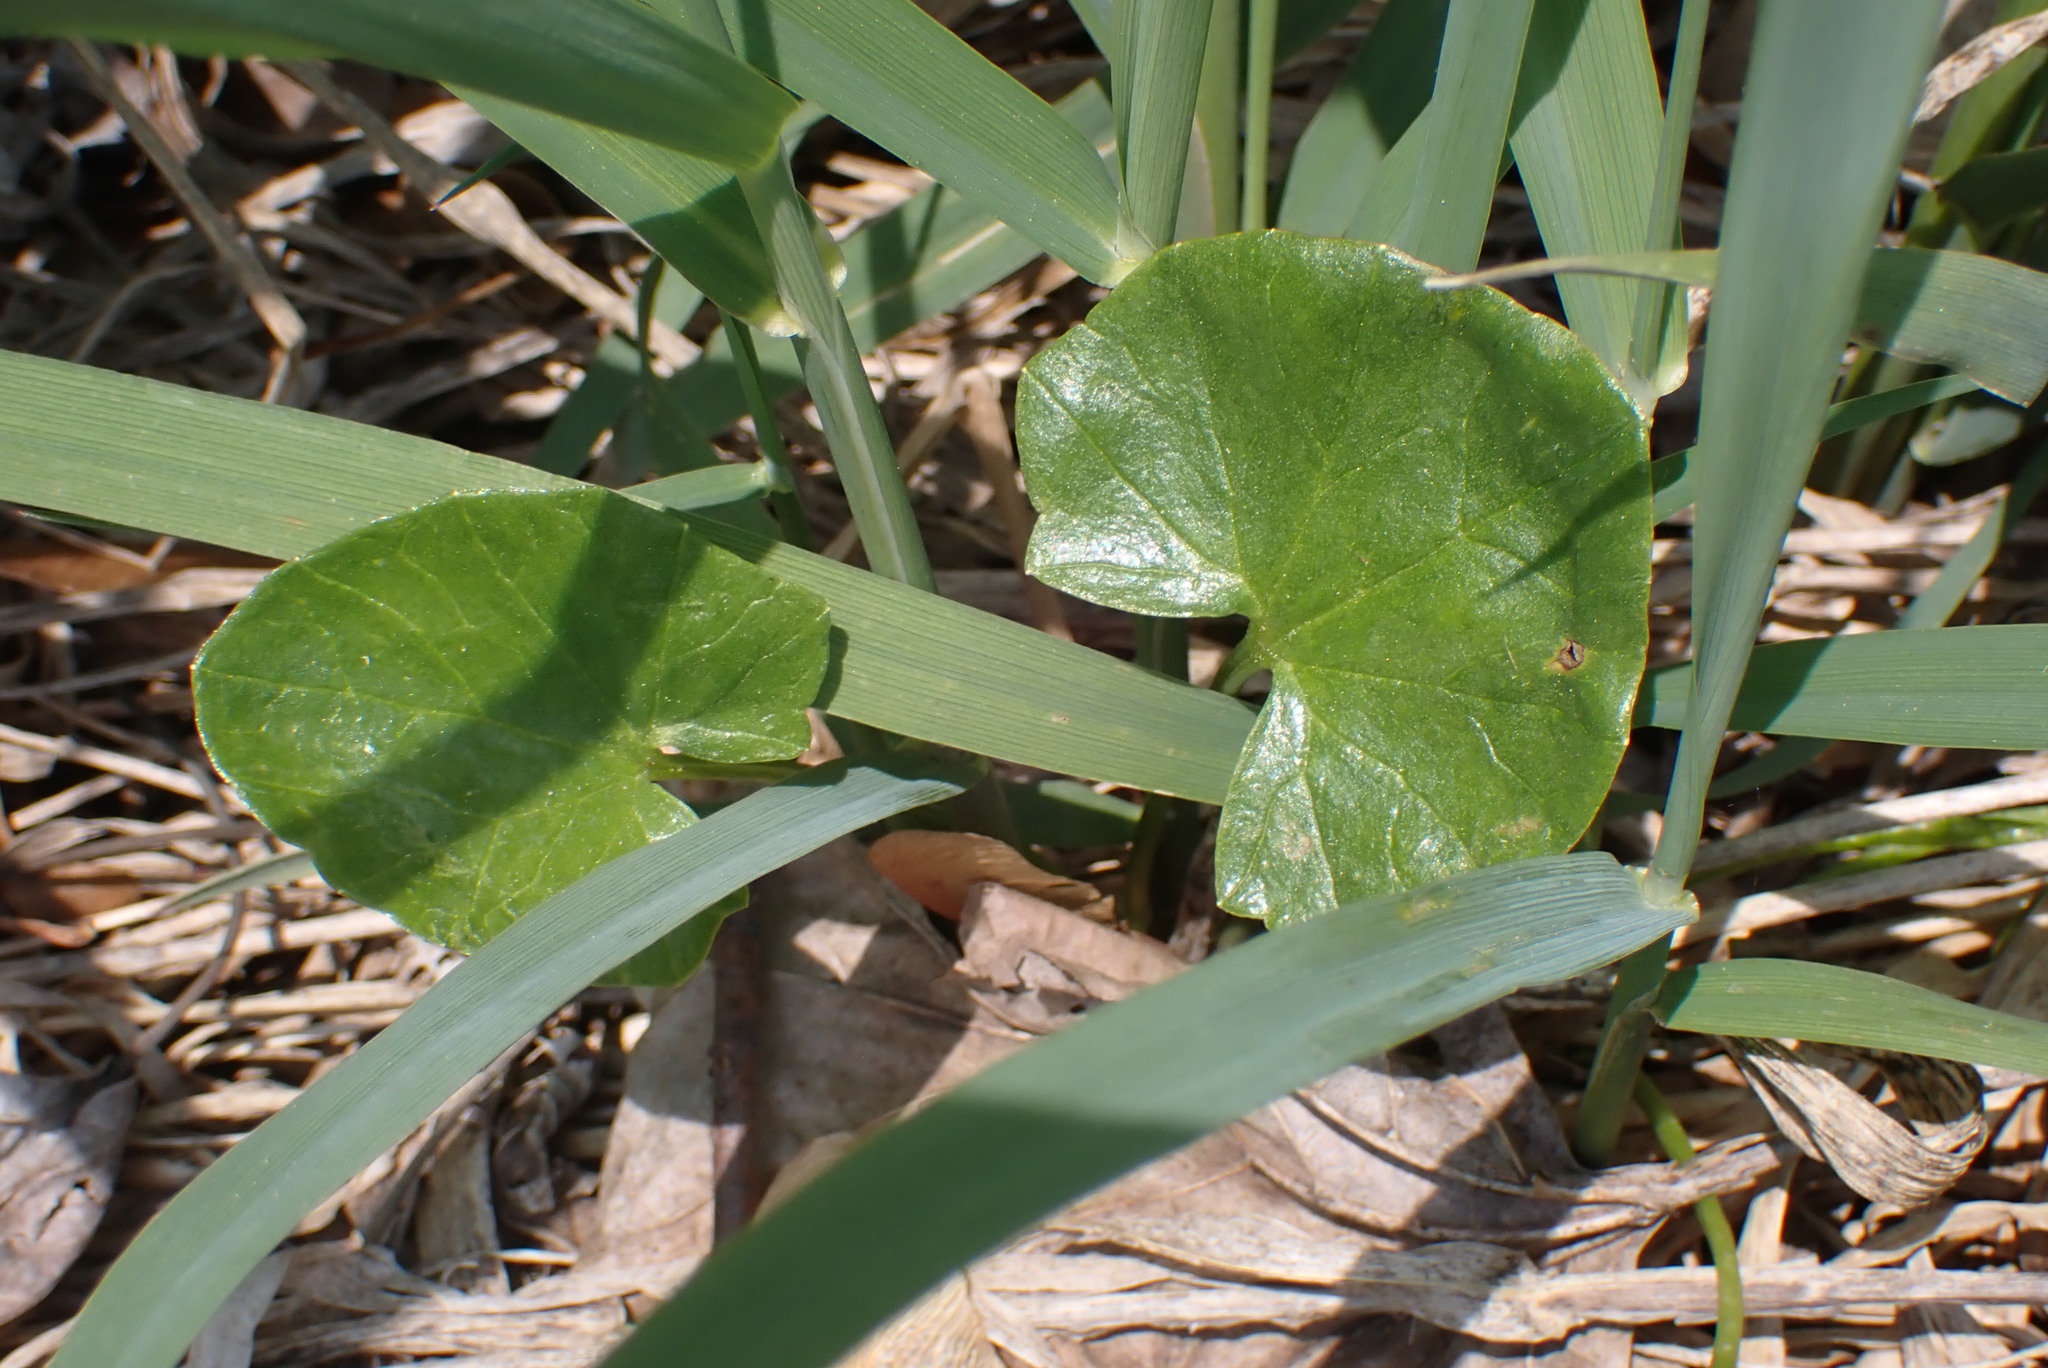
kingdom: Plantae
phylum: Tracheophyta
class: Magnoliopsida
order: Ranunculales
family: Ranunculaceae
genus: Ficaria
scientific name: Ficaria verna
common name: Lesser celandine
